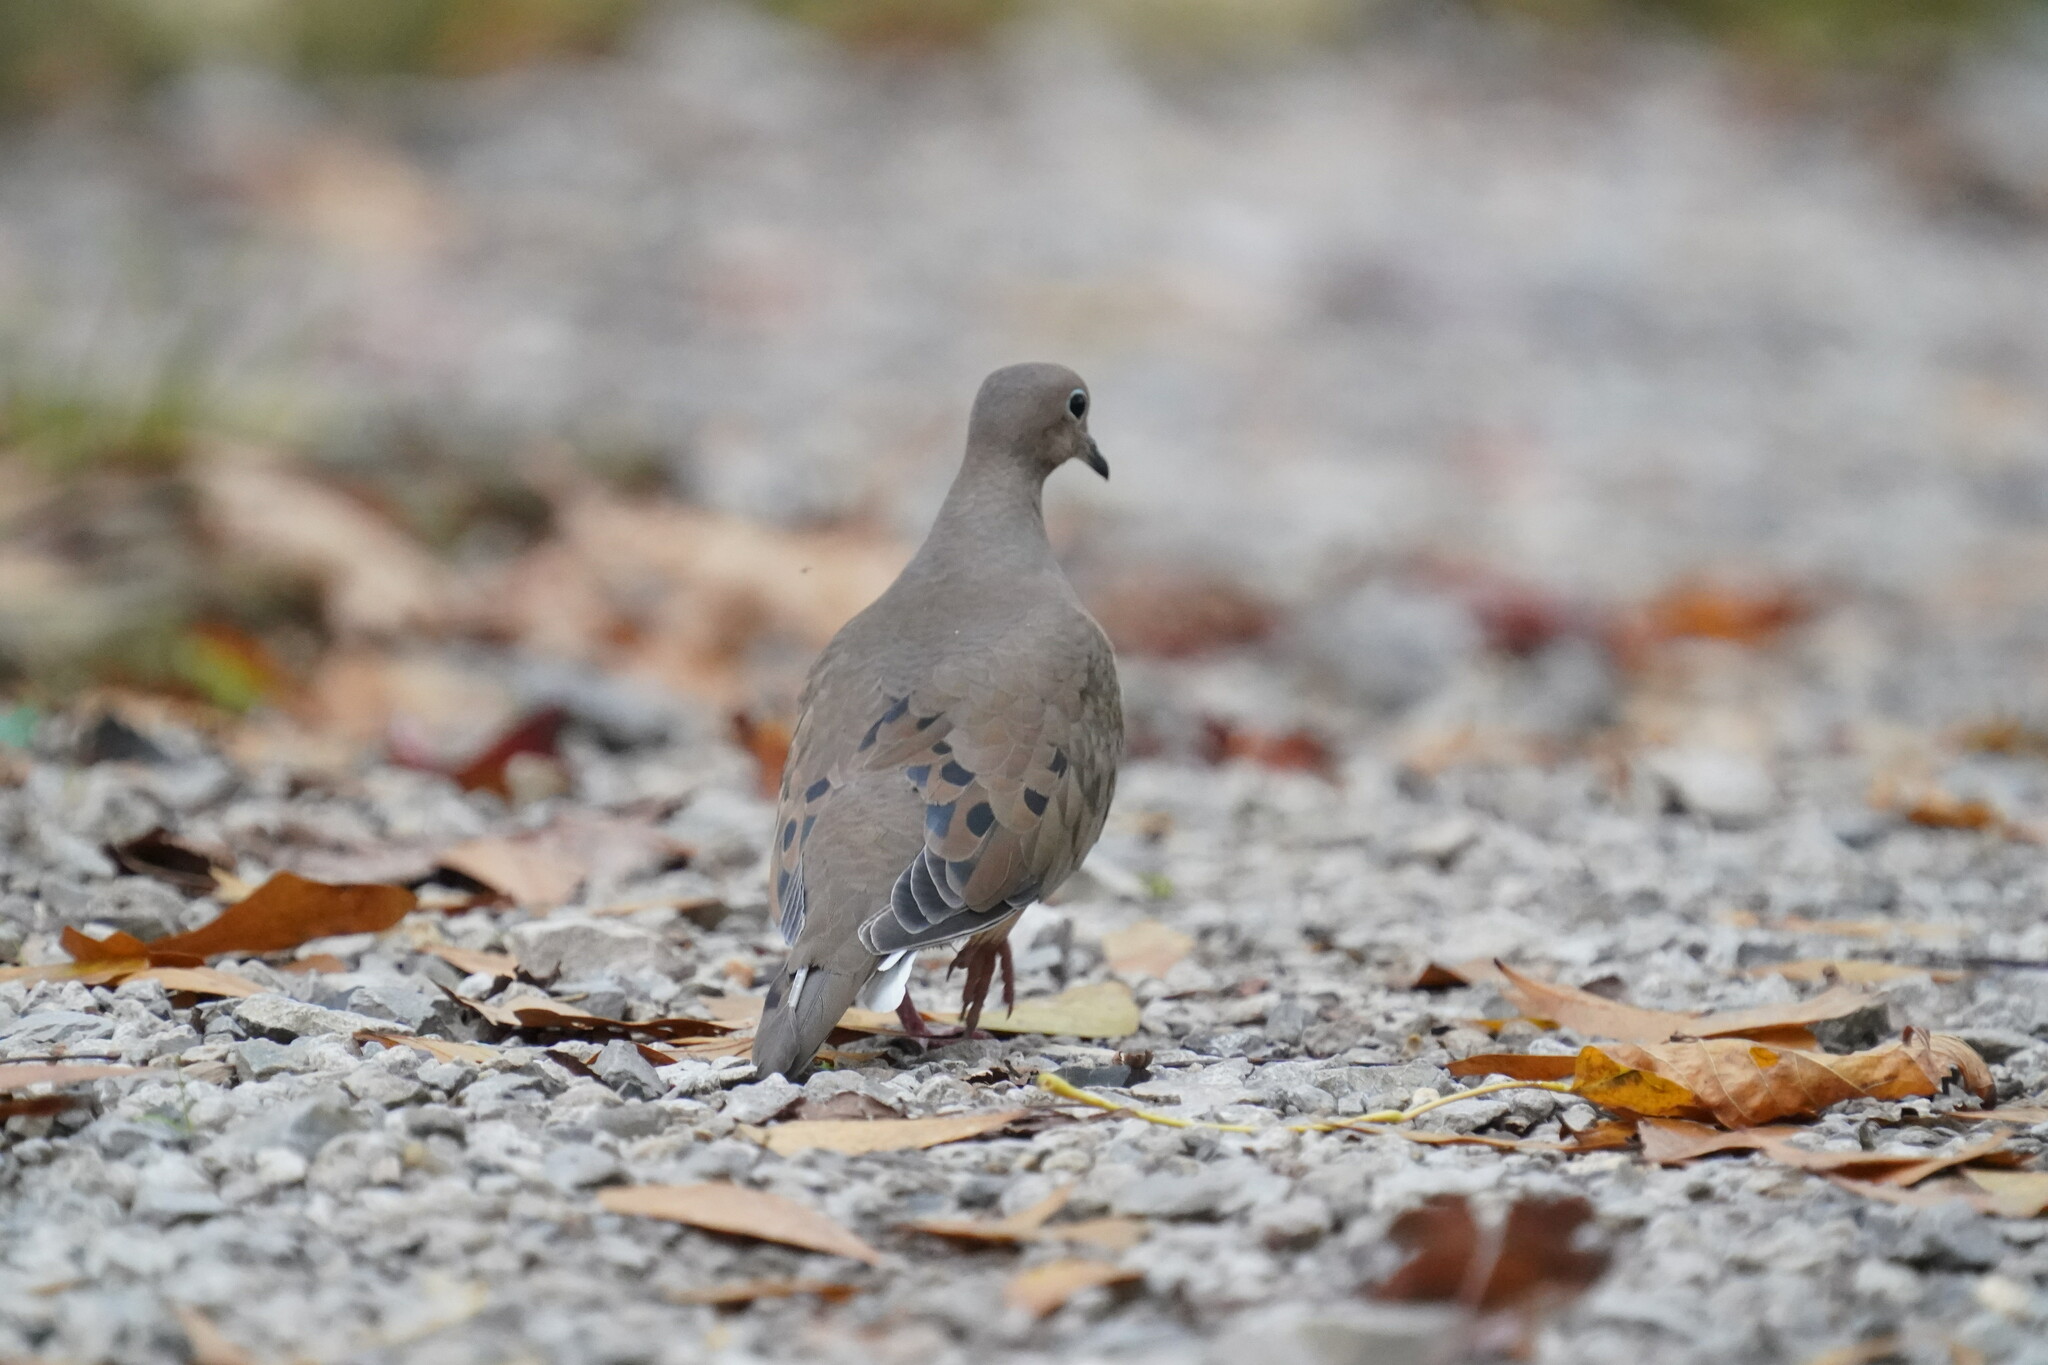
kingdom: Animalia
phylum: Chordata
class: Aves
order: Columbiformes
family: Columbidae
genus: Zenaida
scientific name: Zenaida macroura
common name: Mourning dove
